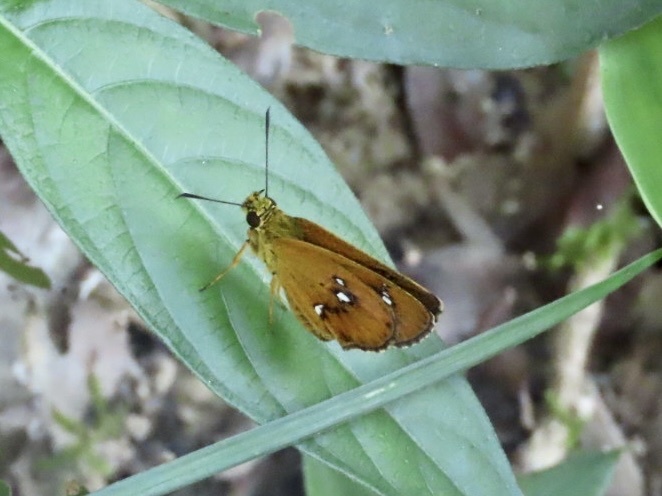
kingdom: Animalia
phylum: Arthropoda
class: Insecta
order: Lepidoptera
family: Hesperiidae
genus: Iambrix
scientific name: Iambrix salsala
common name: Chestnut bob
